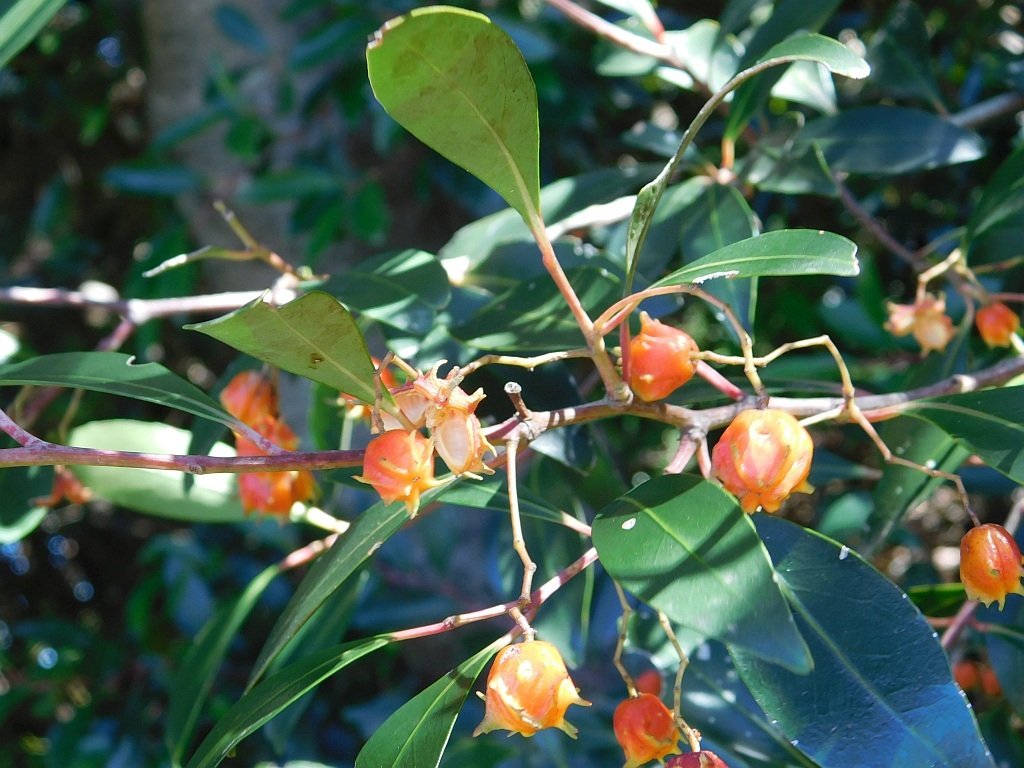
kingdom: Plantae
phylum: Tracheophyta
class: Magnoliopsida
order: Celastrales
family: Celastraceae
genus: Pterocelastrus
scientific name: Pterocelastrus rostratus
